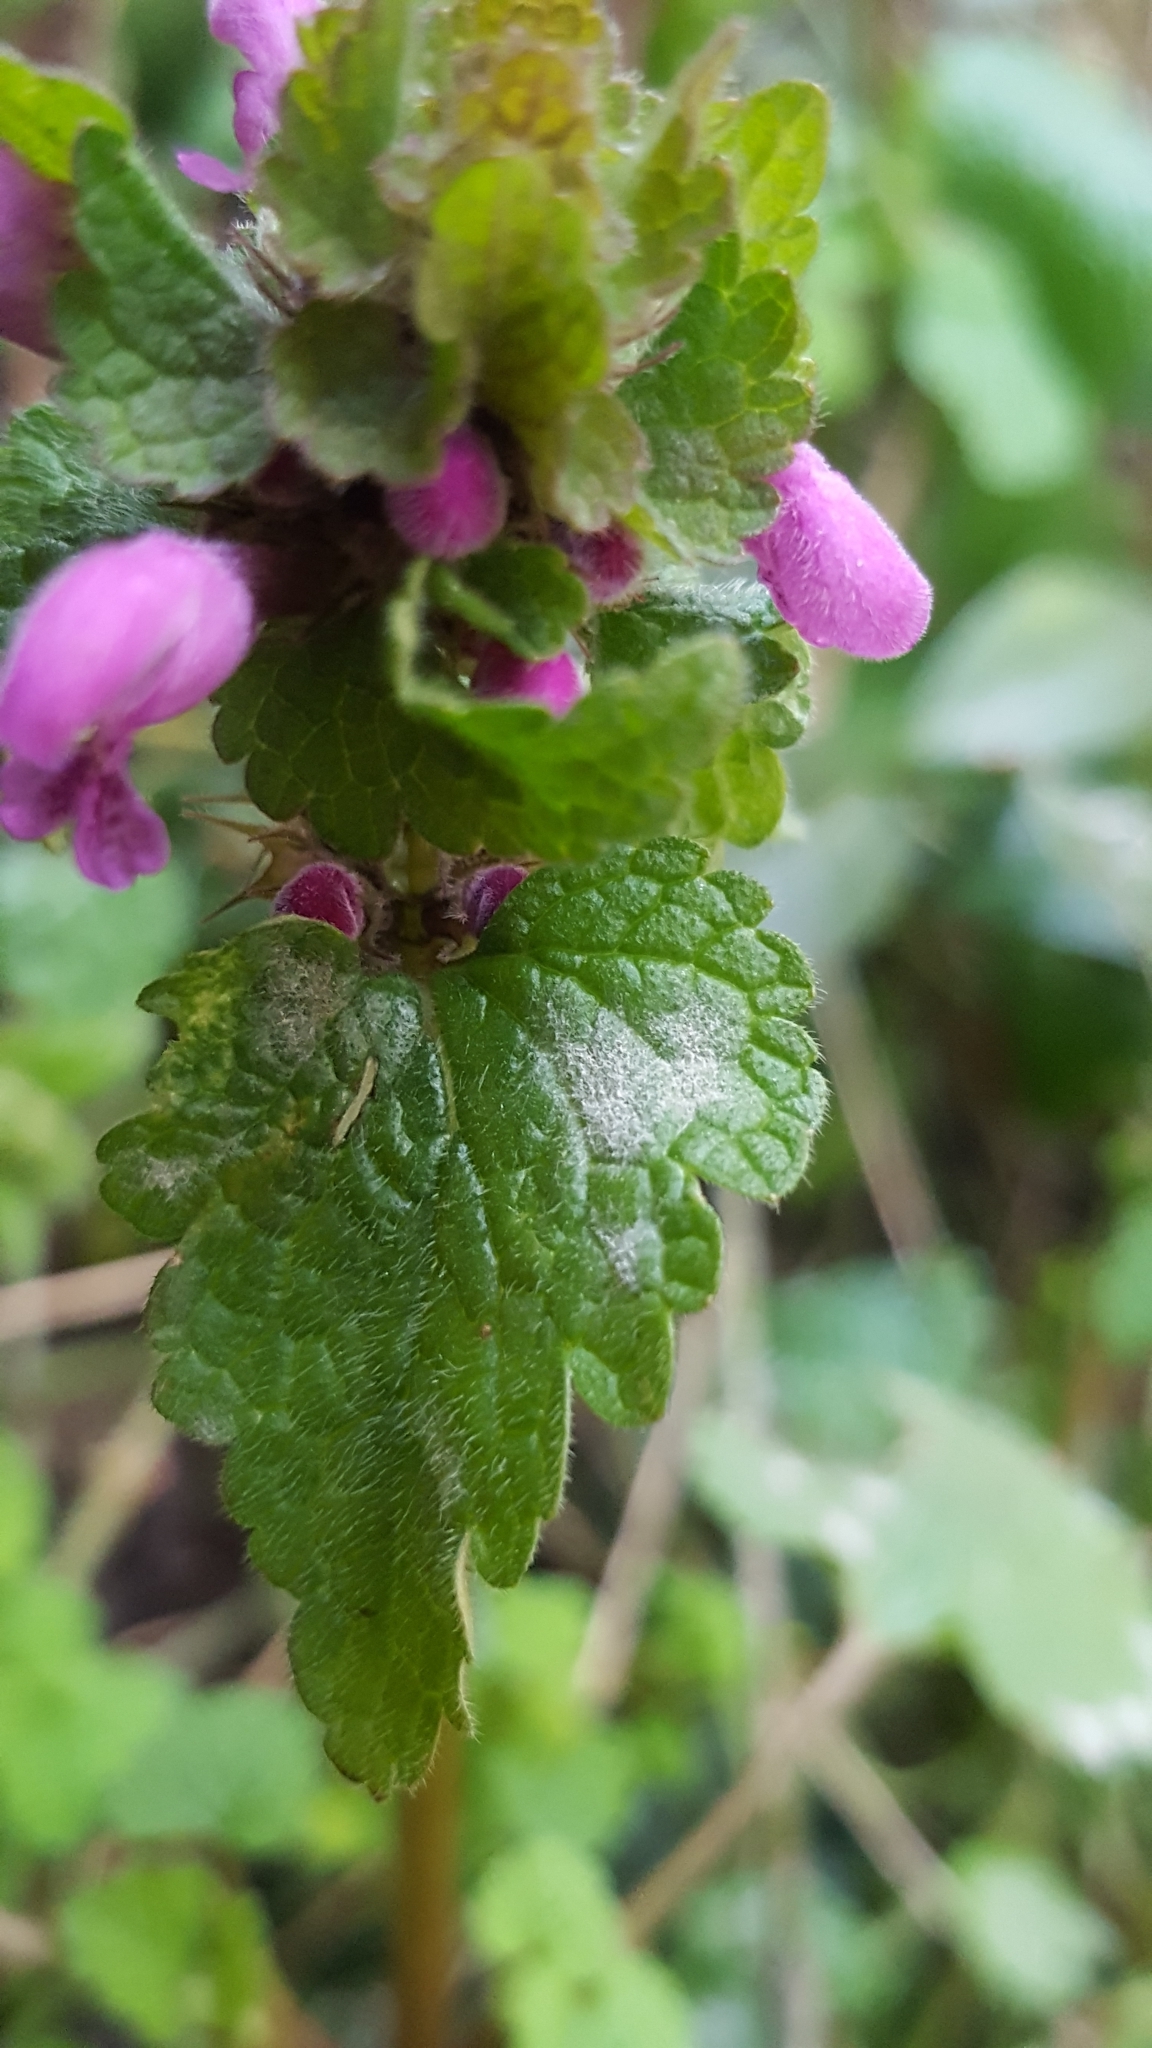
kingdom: Fungi
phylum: Ascomycota
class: Leotiomycetes
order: Helotiales
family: Erysiphaceae
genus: Neoerysiphe
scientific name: Neoerysiphe galeopsidis
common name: Mint mildew
